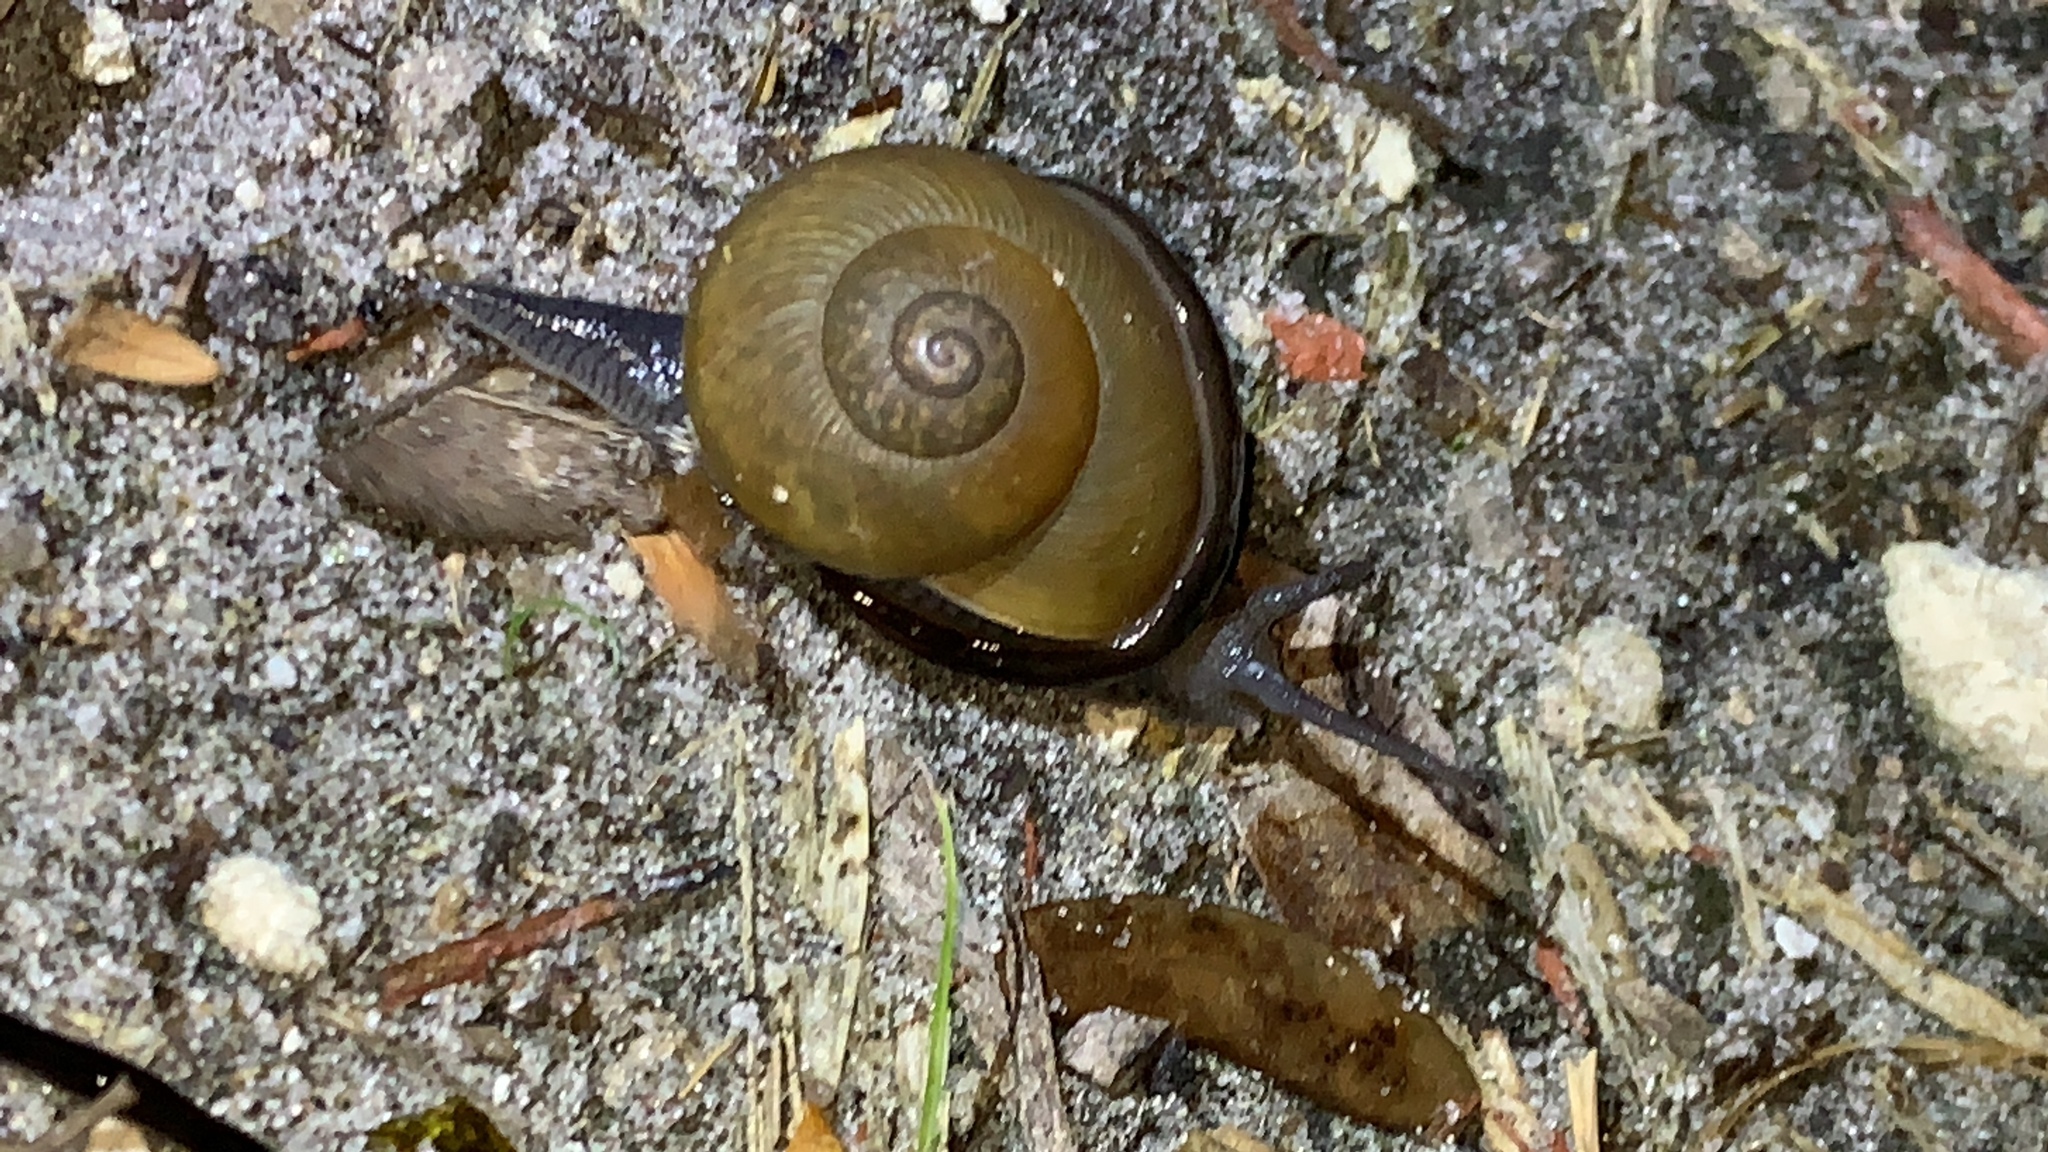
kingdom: Animalia
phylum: Platyhelminthes
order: Tricladida
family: Geoplanidae
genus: Platydemus
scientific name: Platydemus manokwari
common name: New guinea flatworm
